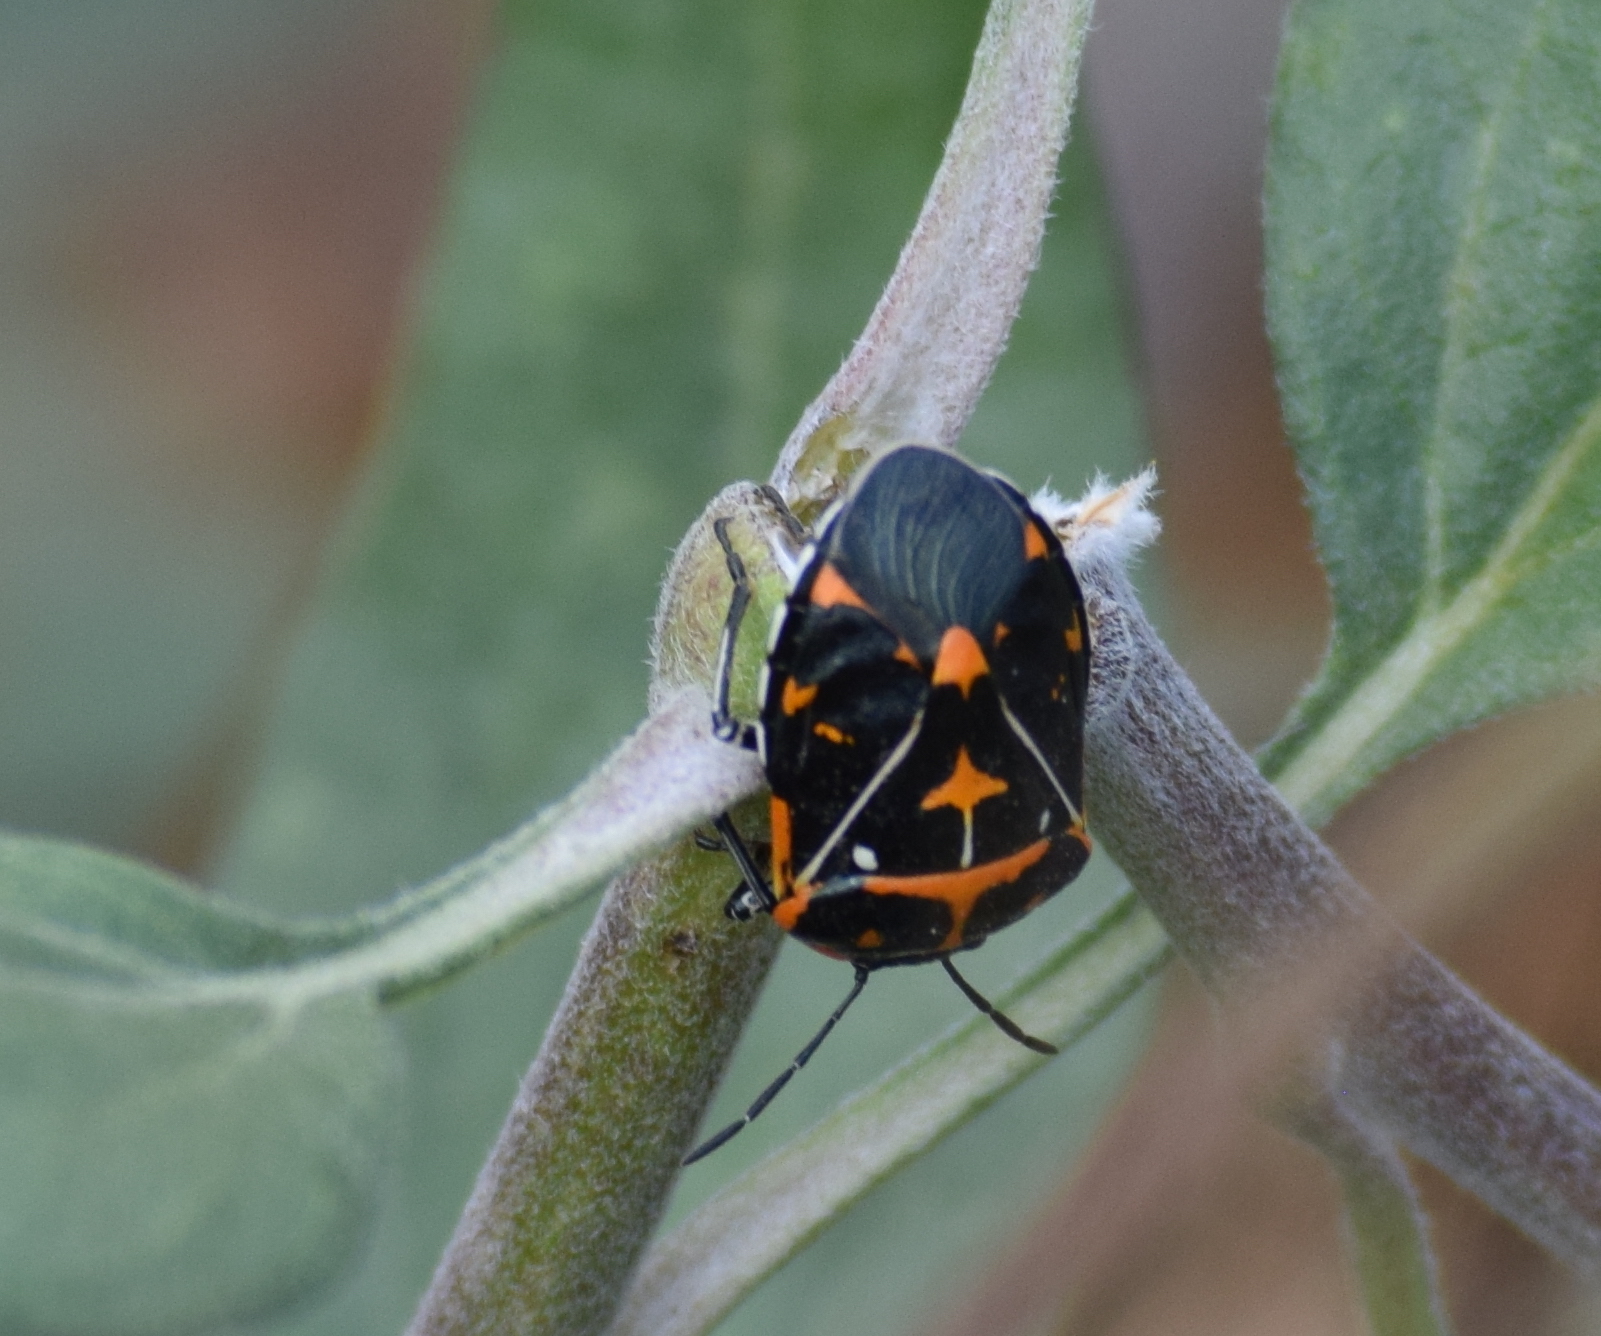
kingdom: Animalia
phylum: Arthropoda
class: Insecta
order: Hemiptera
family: Pentatomidae
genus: Murgantia
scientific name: Murgantia histrionica
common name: Harlequin bug
